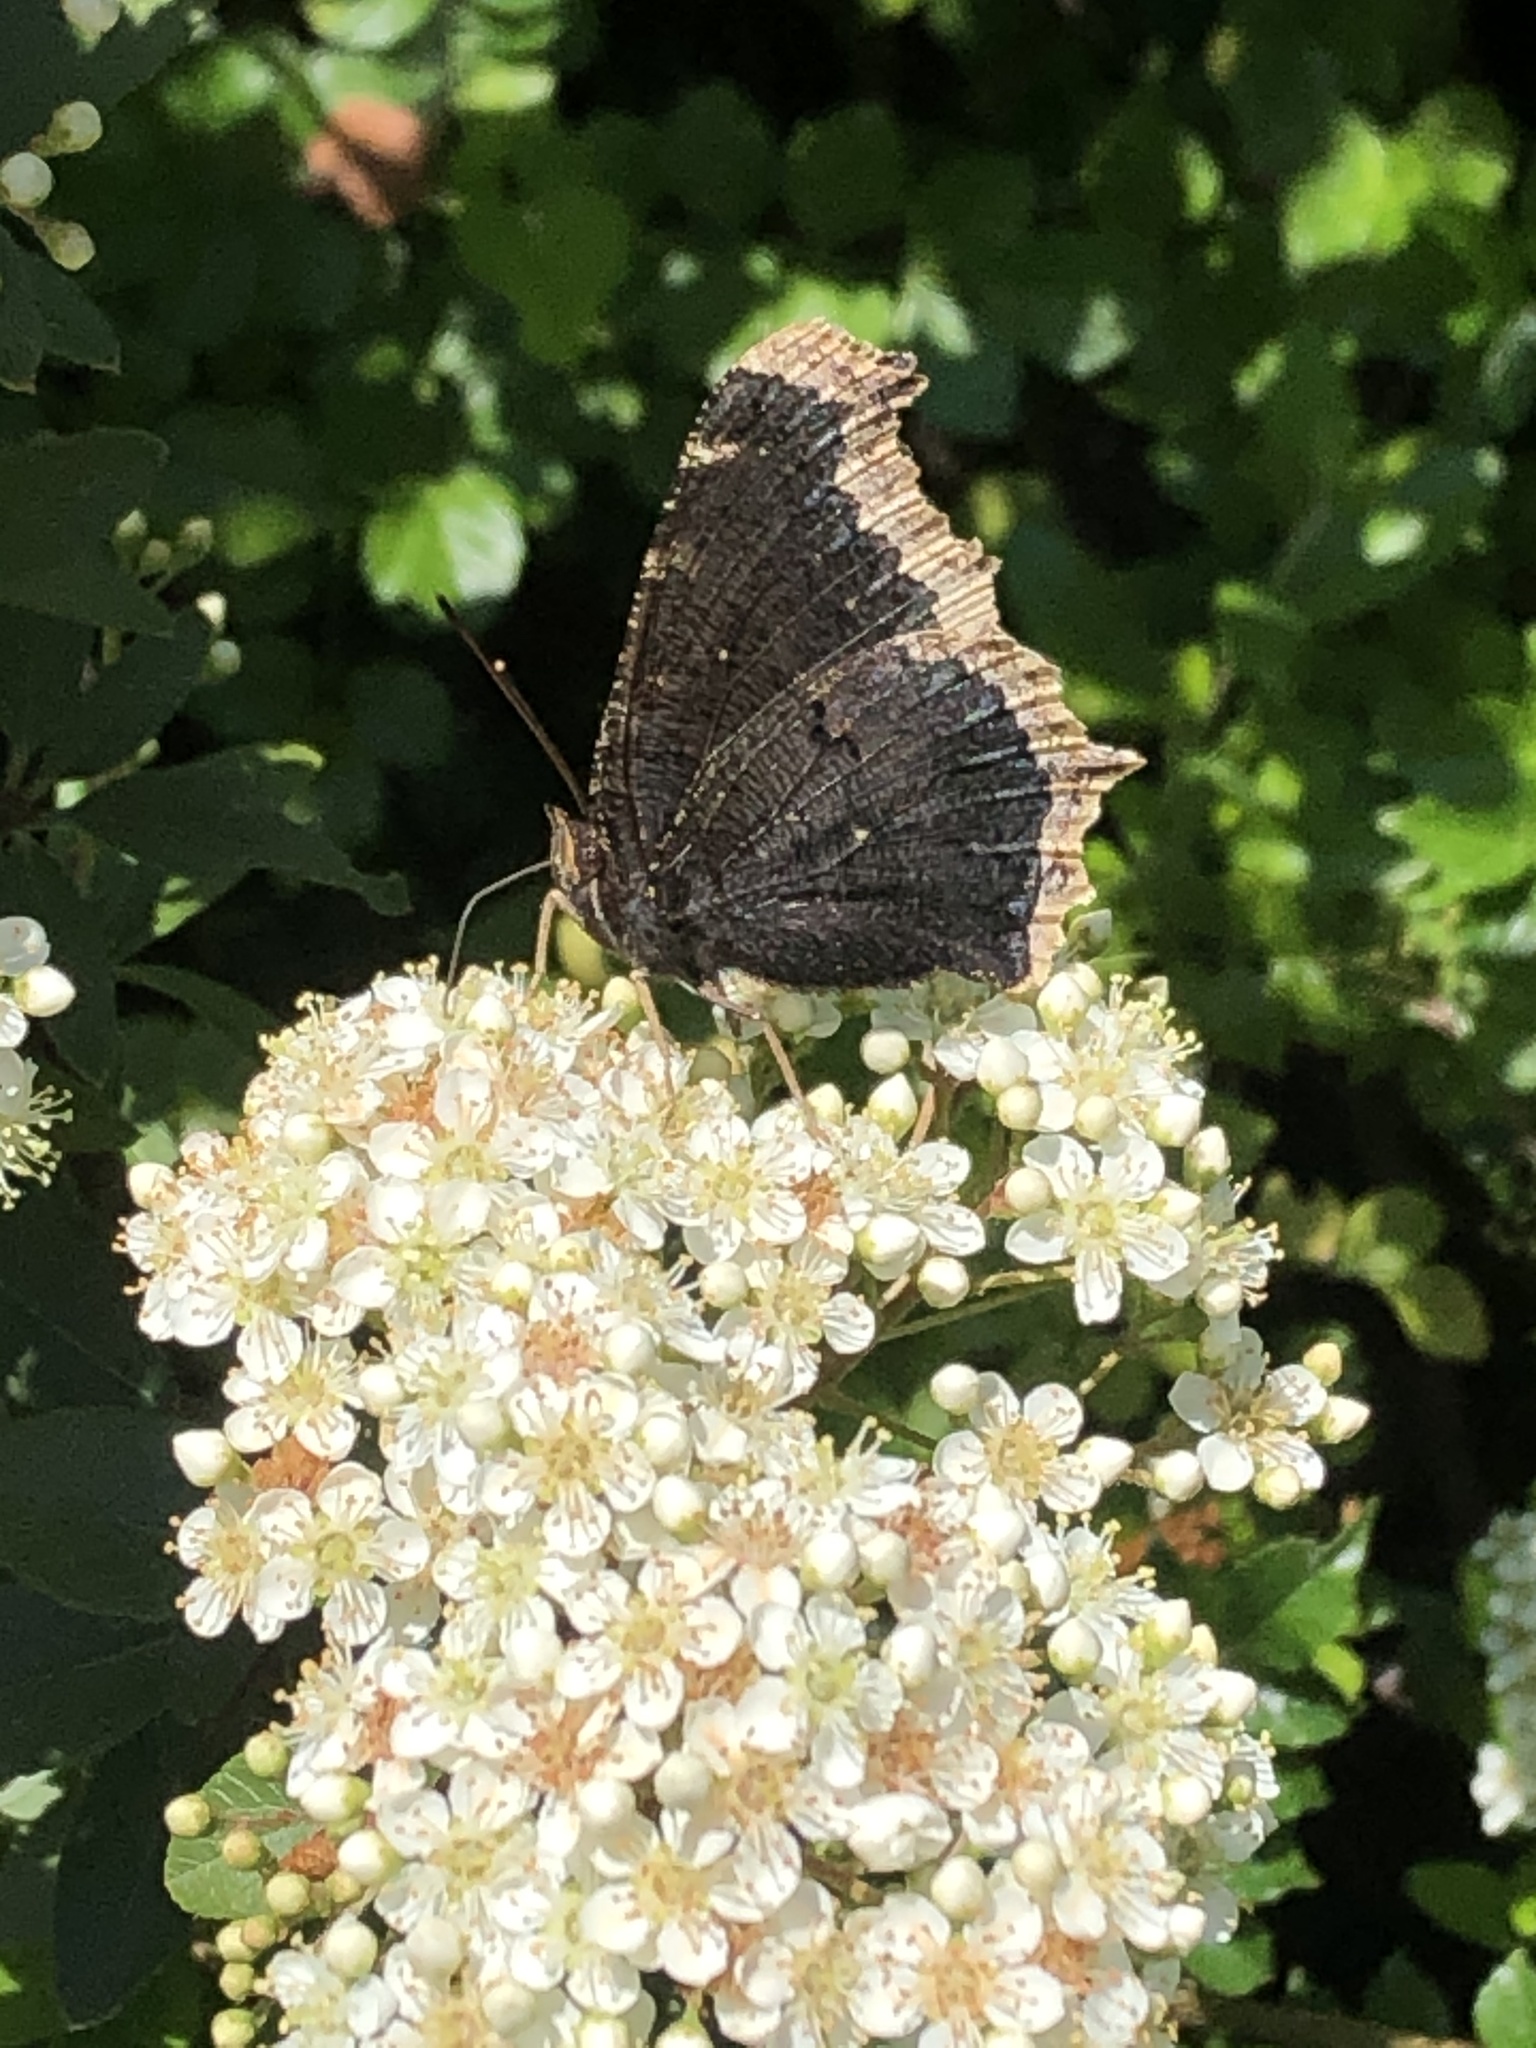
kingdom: Animalia
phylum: Arthropoda
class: Insecta
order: Lepidoptera
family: Nymphalidae
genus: Nymphalis
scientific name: Nymphalis antiopa
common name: Camberwell beauty
